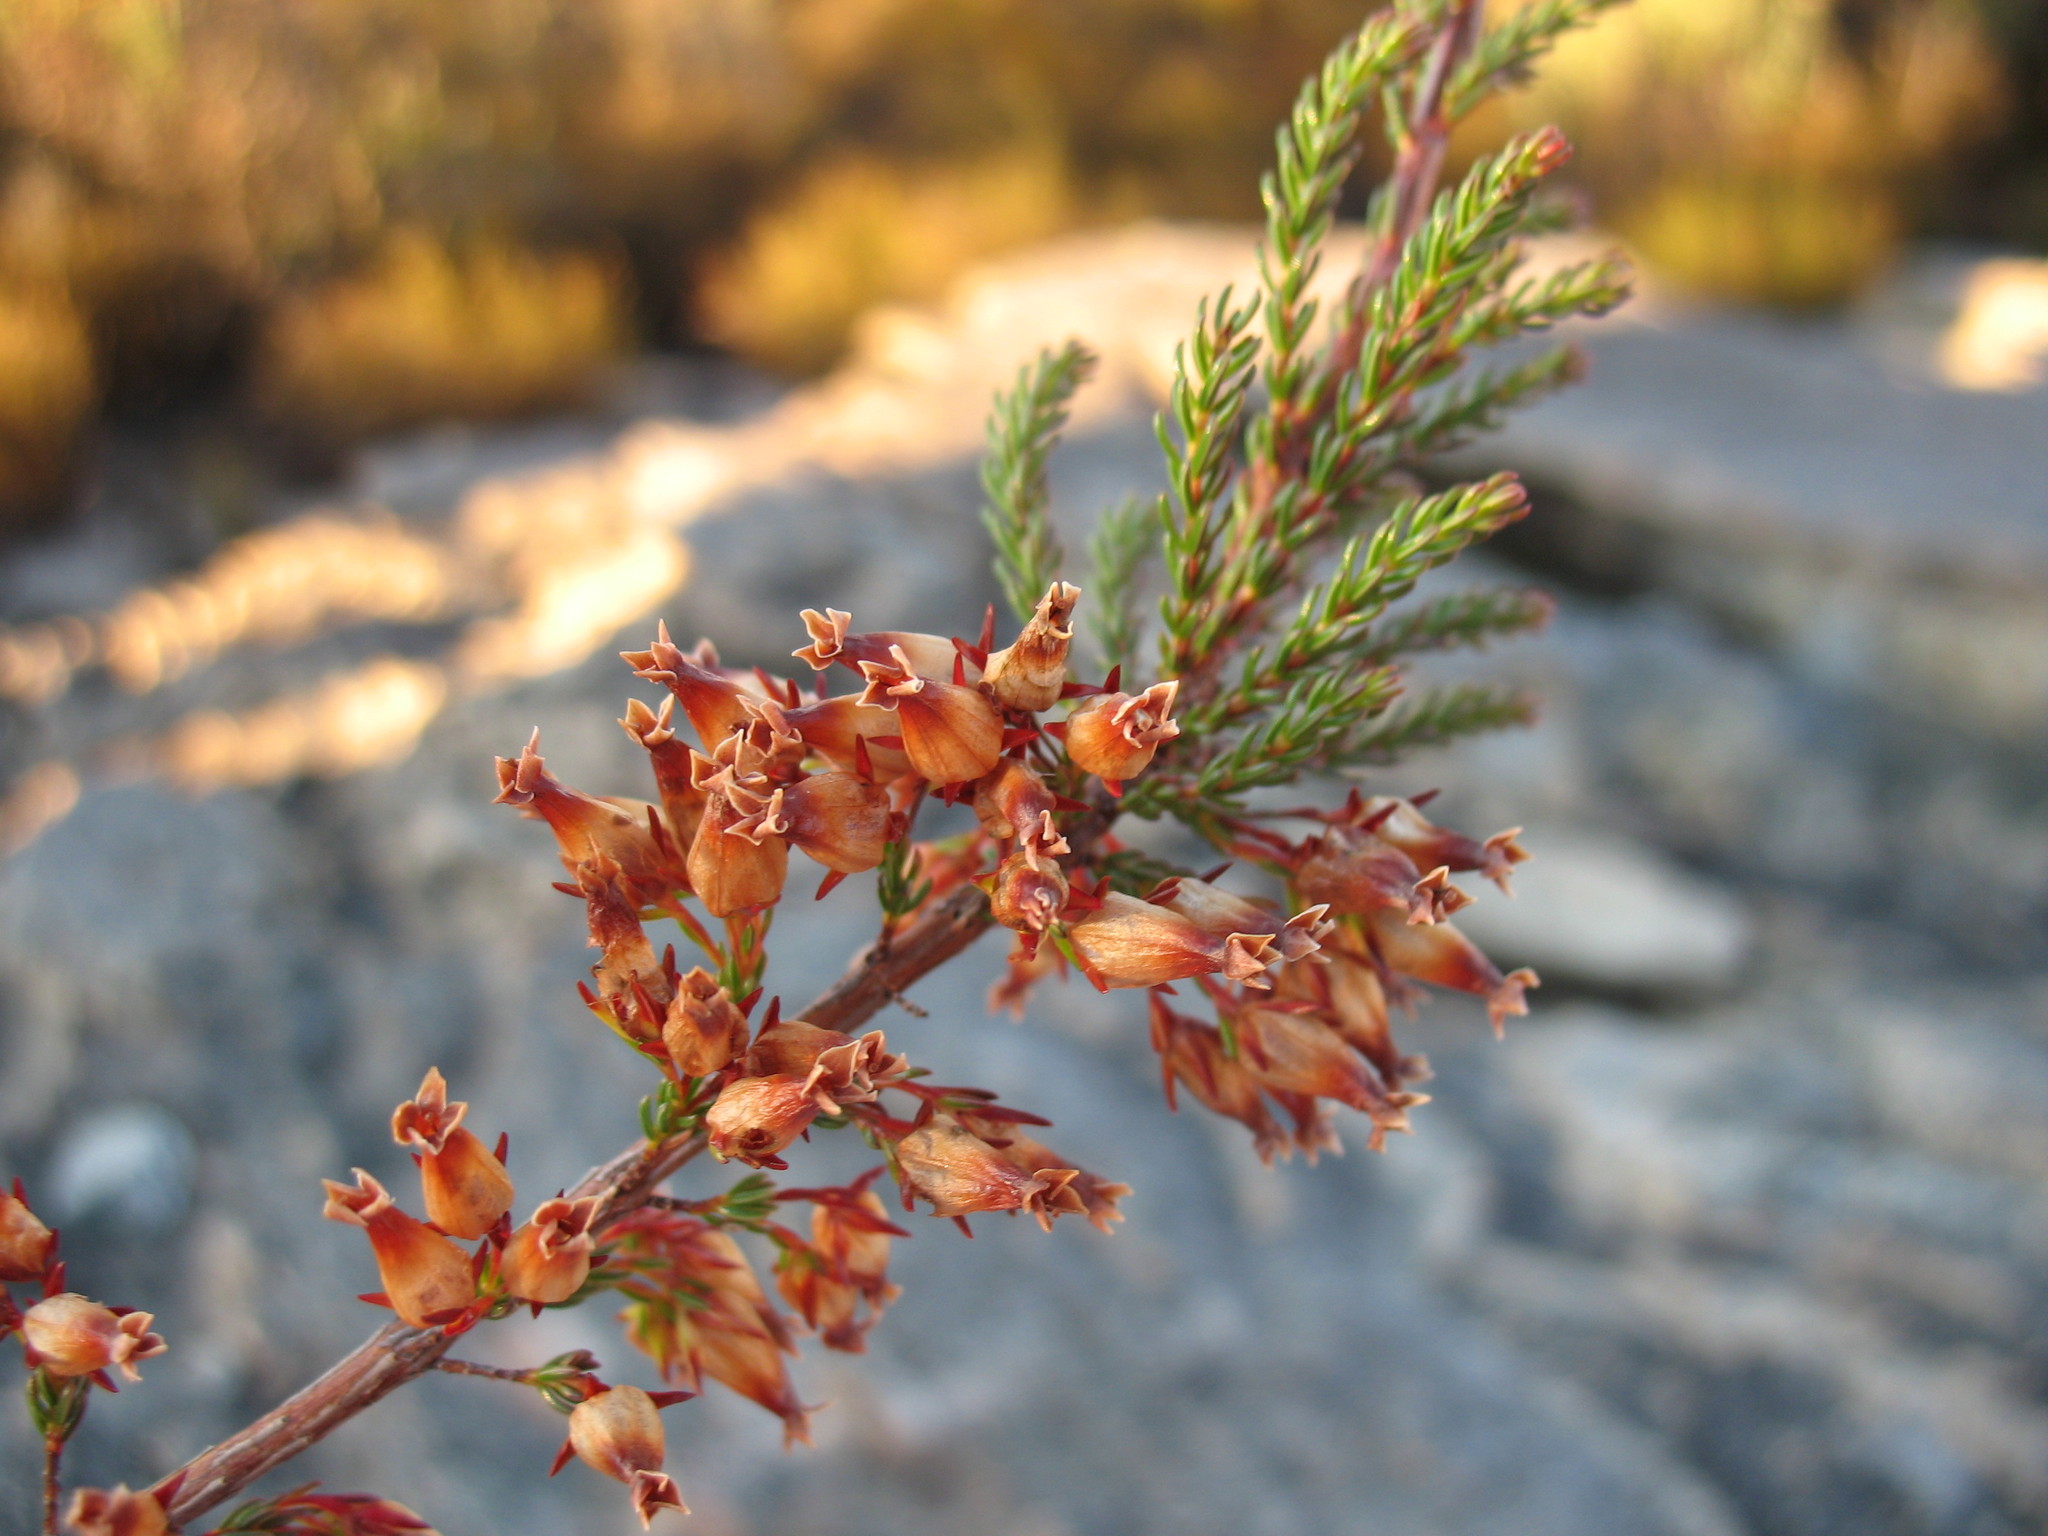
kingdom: Plantae
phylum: Tracheophyta
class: Magnoliopsida
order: Ericales
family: Ericaceae
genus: Erica
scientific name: Erica daphniflora
